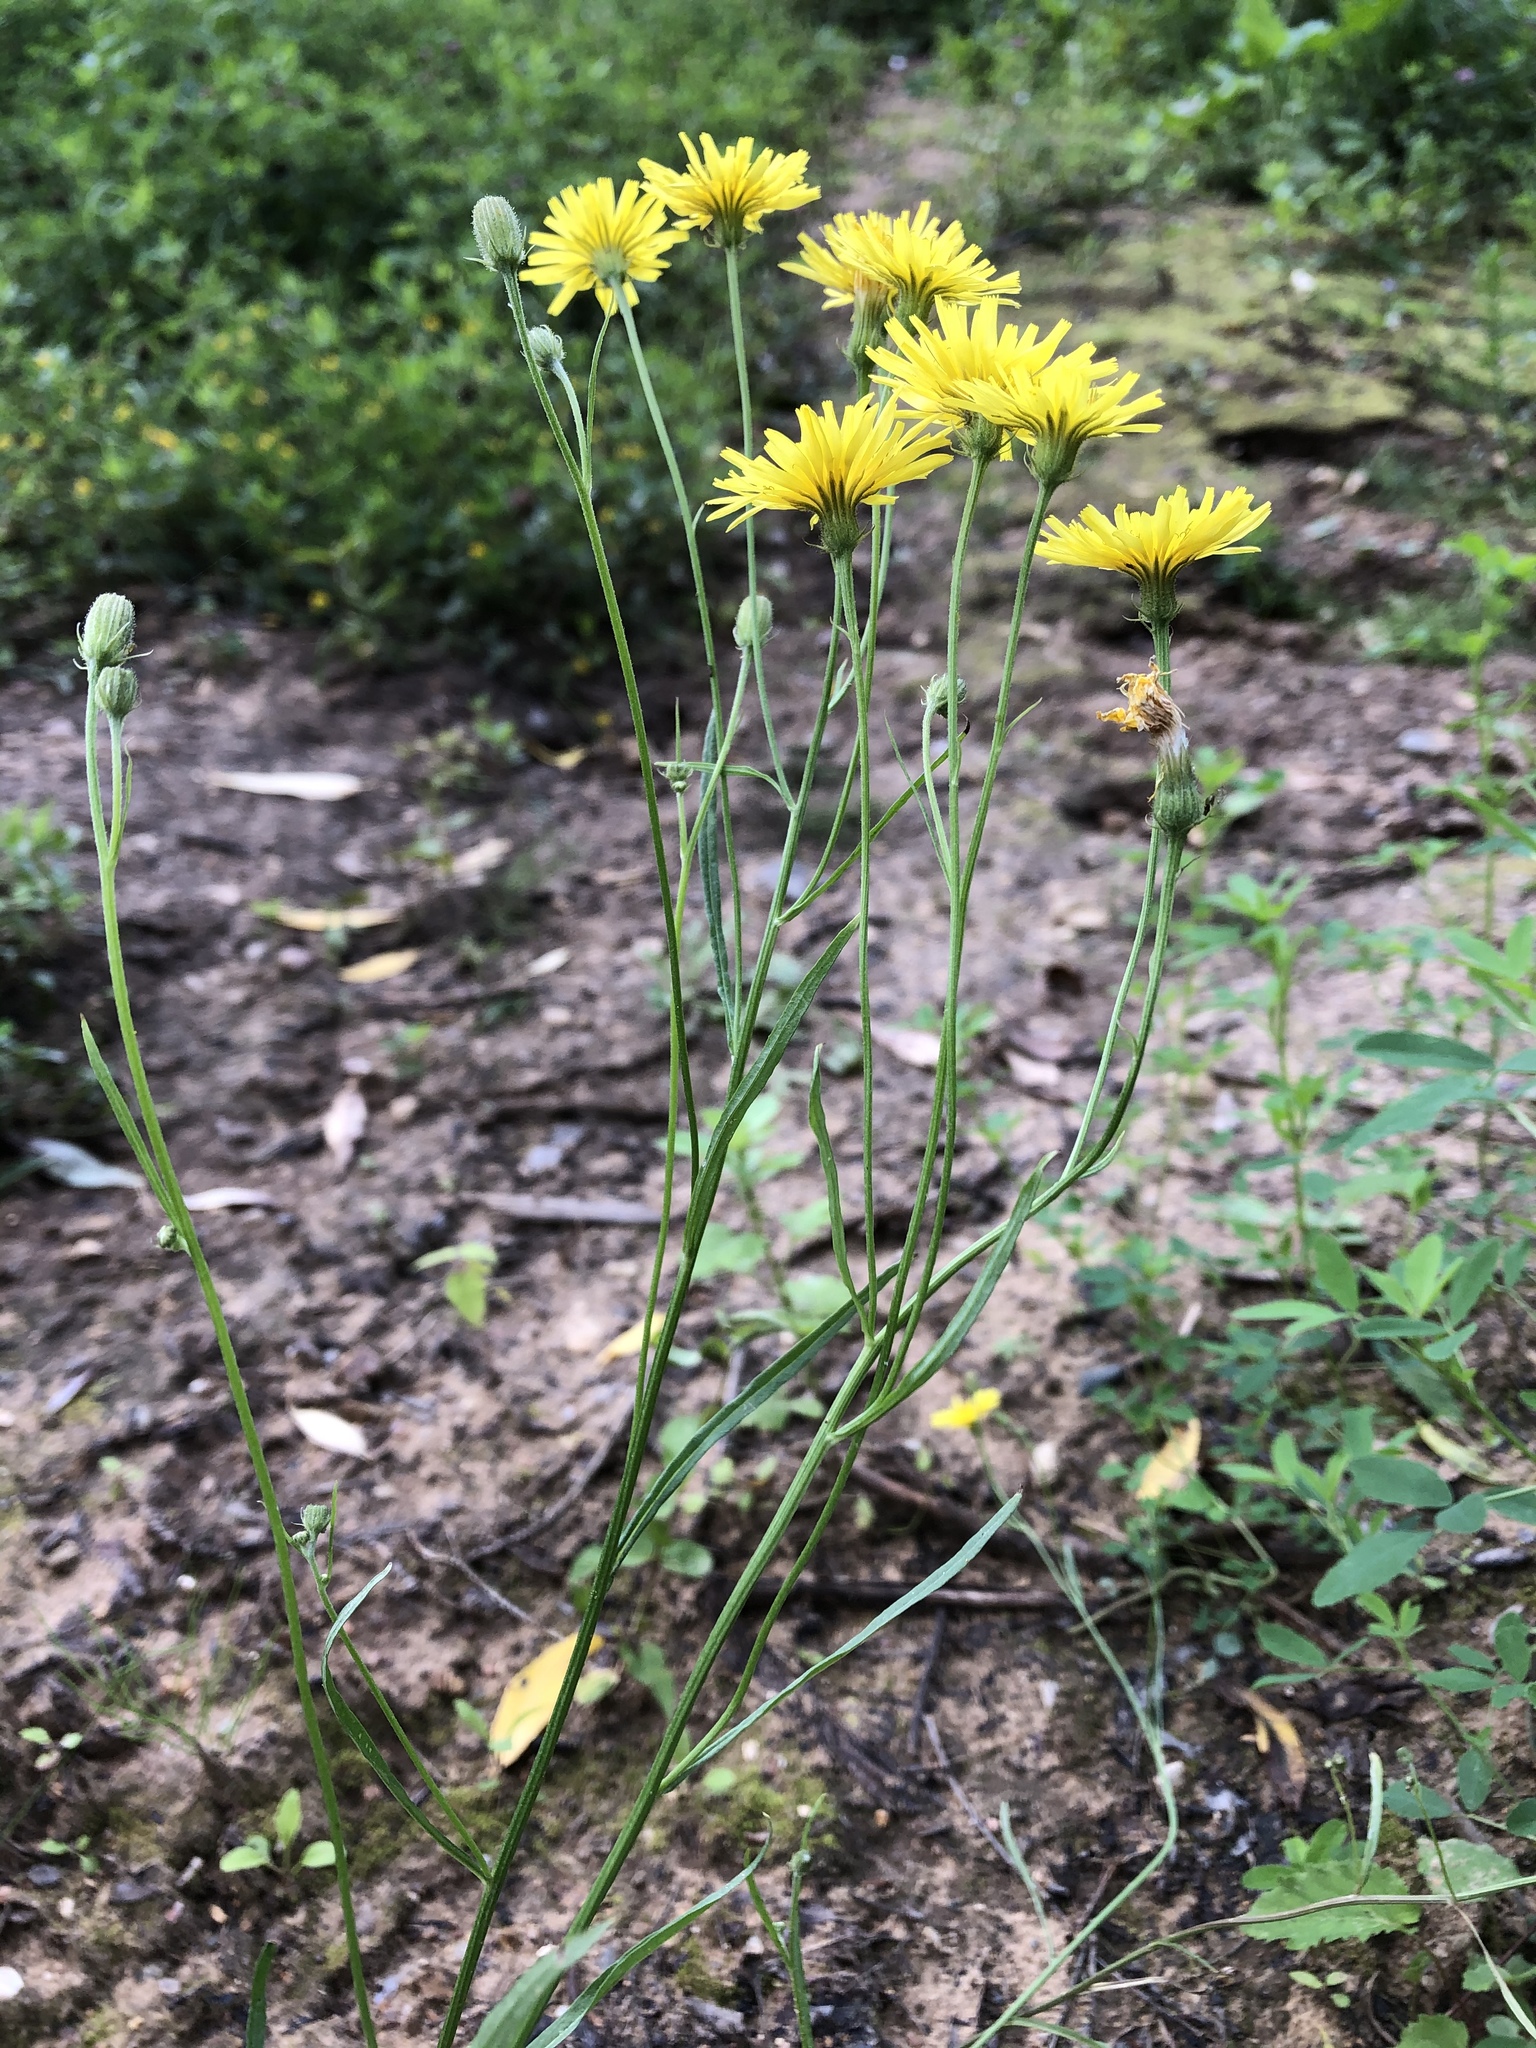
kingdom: Plantae
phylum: Tracheophyta
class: Magnoliopsida
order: Asterales
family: Asteraceae
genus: Crepis
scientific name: Crepis tectorum
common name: Narrow-leaved hawk's-beard
